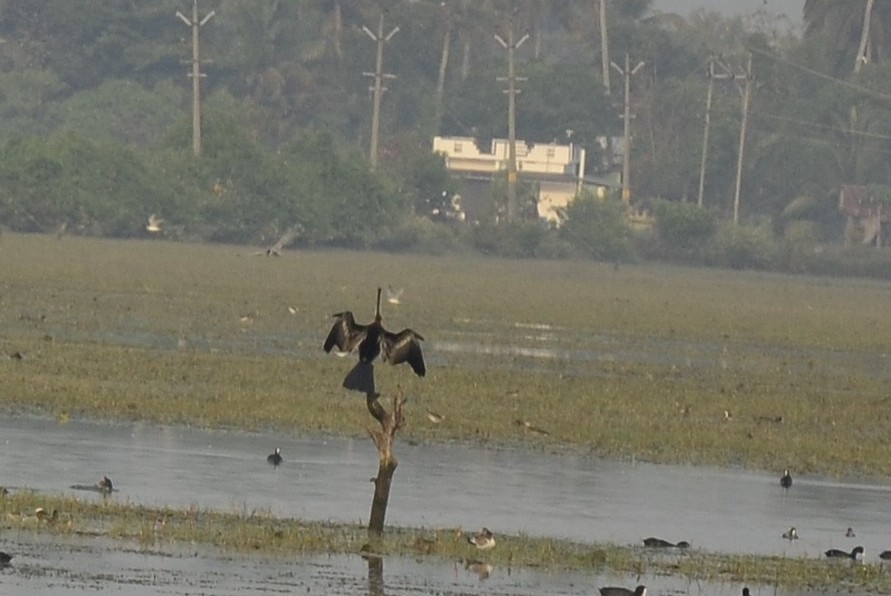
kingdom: Animalia
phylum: Chordata
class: Aves
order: Suliformes
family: Anhingidae
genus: Anhinga
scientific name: Anhinga melanogaster
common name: Oriental darter
